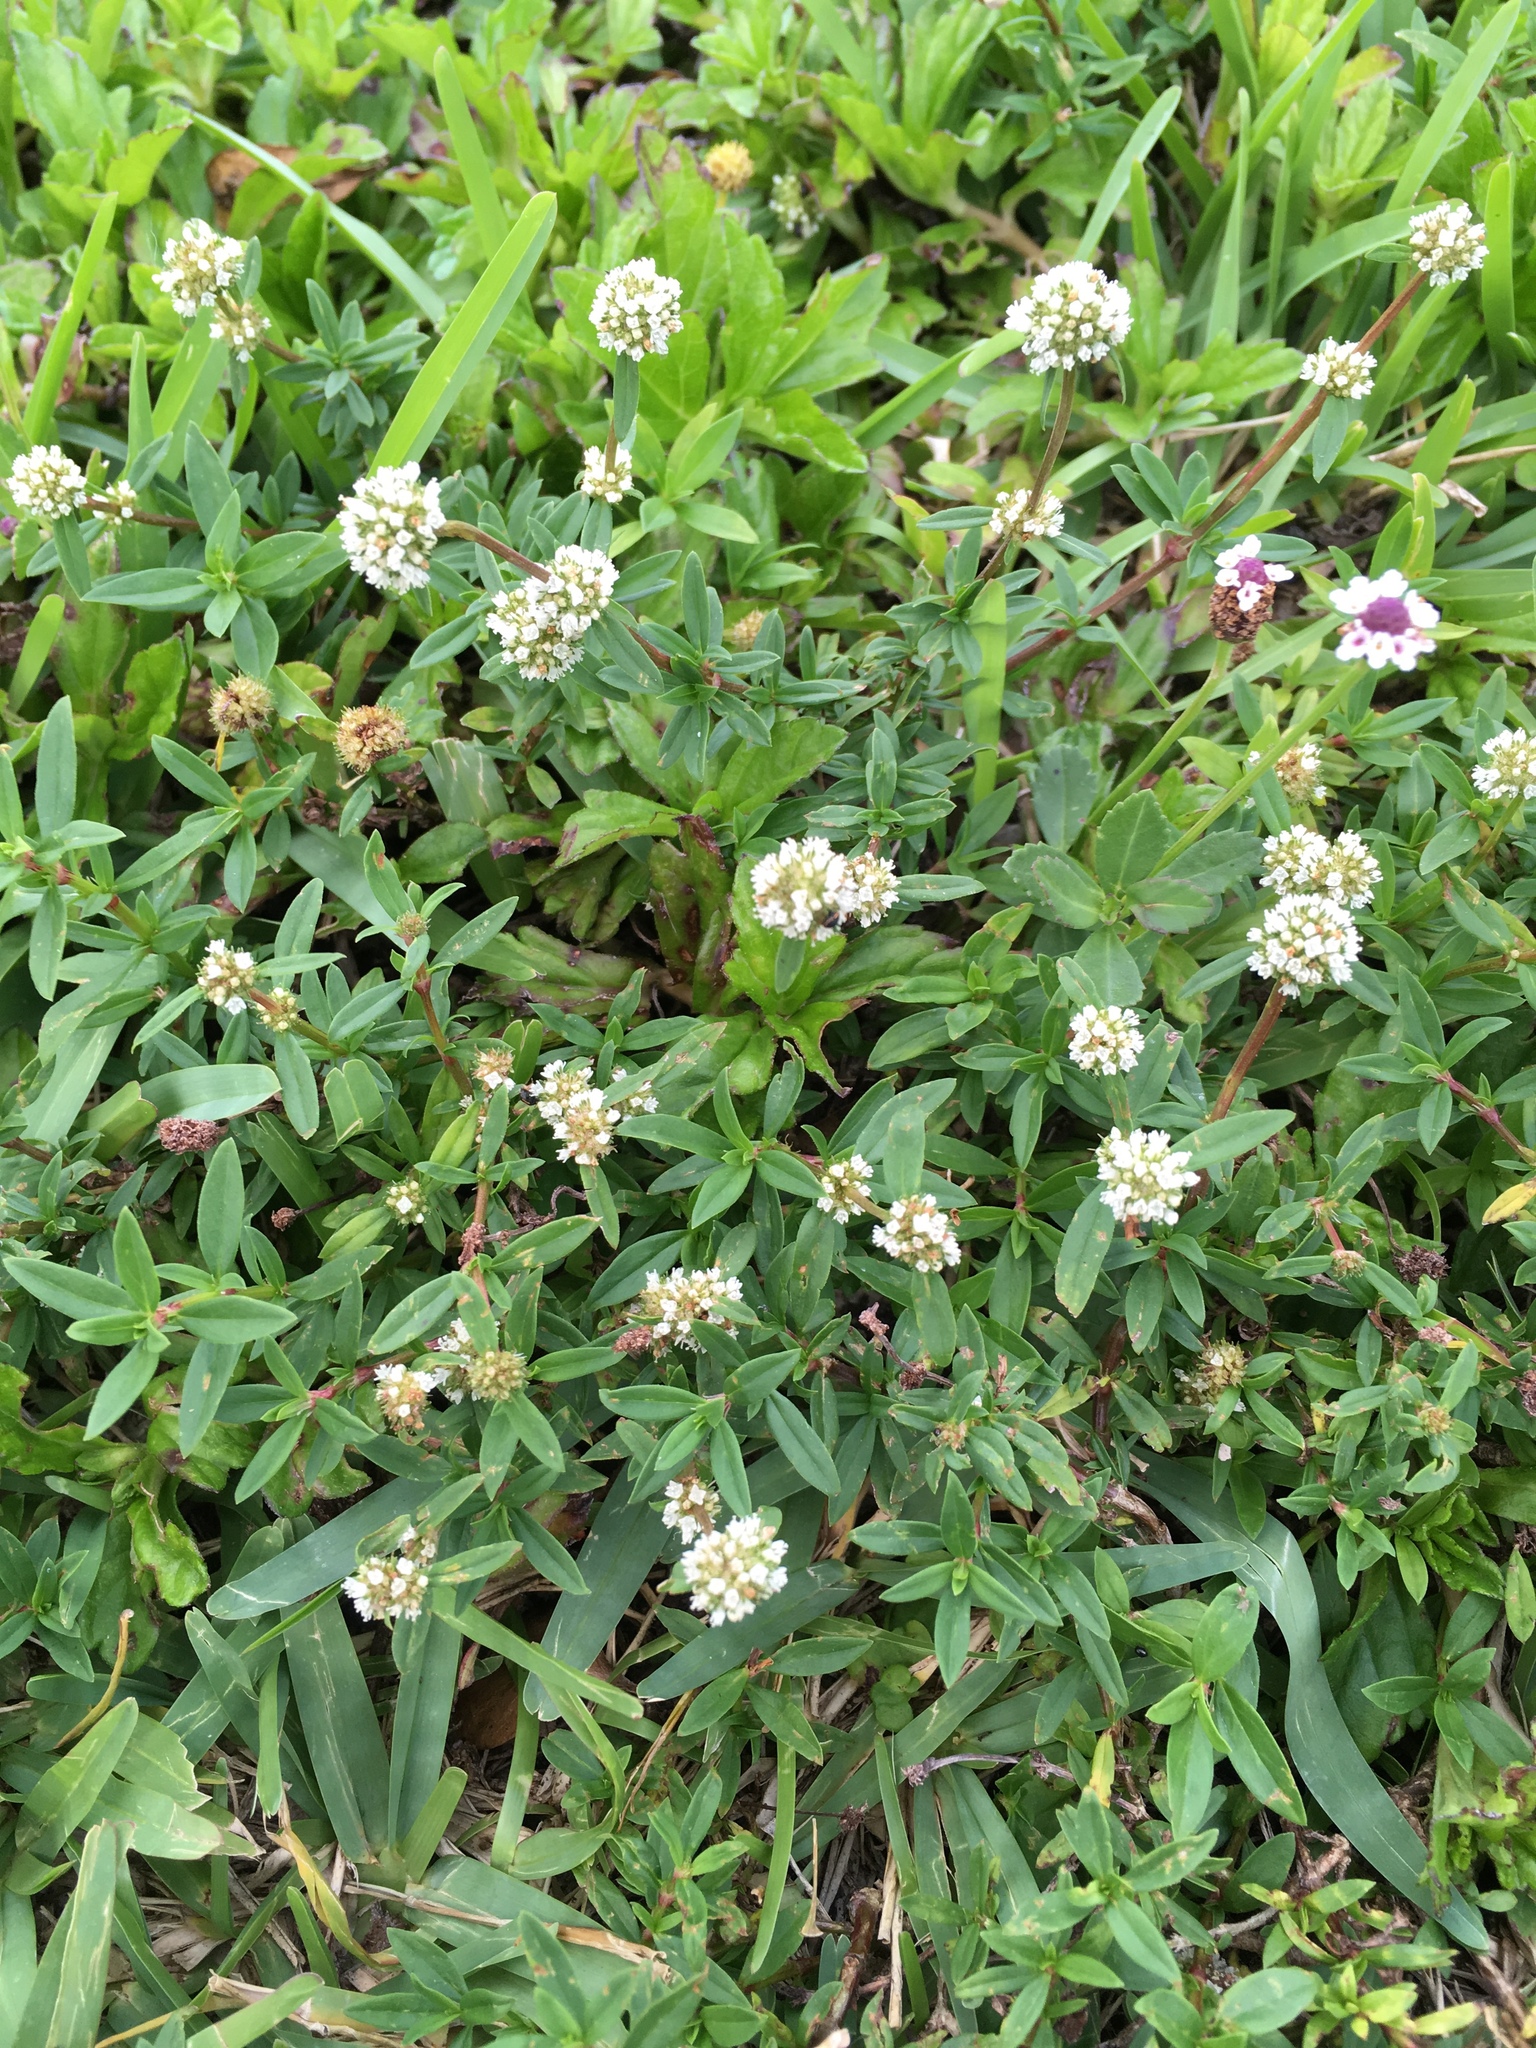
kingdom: Plantae
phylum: Tracheophyta
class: Magnoliopsida
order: Gentianales
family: Rubiaceae
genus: Spermacoce
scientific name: Spermacoce verticillata
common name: Shrubby false buttonweed
